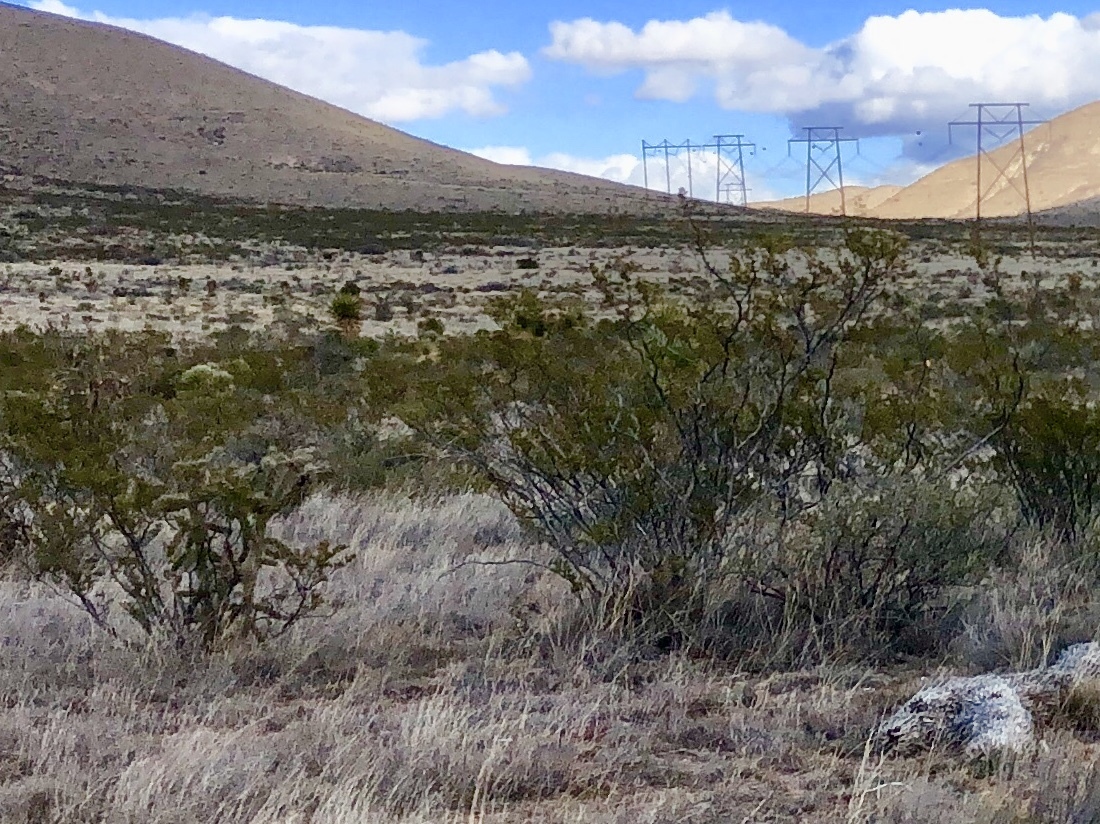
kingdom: Plantae
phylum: Tracheophyta
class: Magnoliopsida
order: Zygophyllales
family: Zygophyllaceae
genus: Larrea
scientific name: Larrea tridentata
